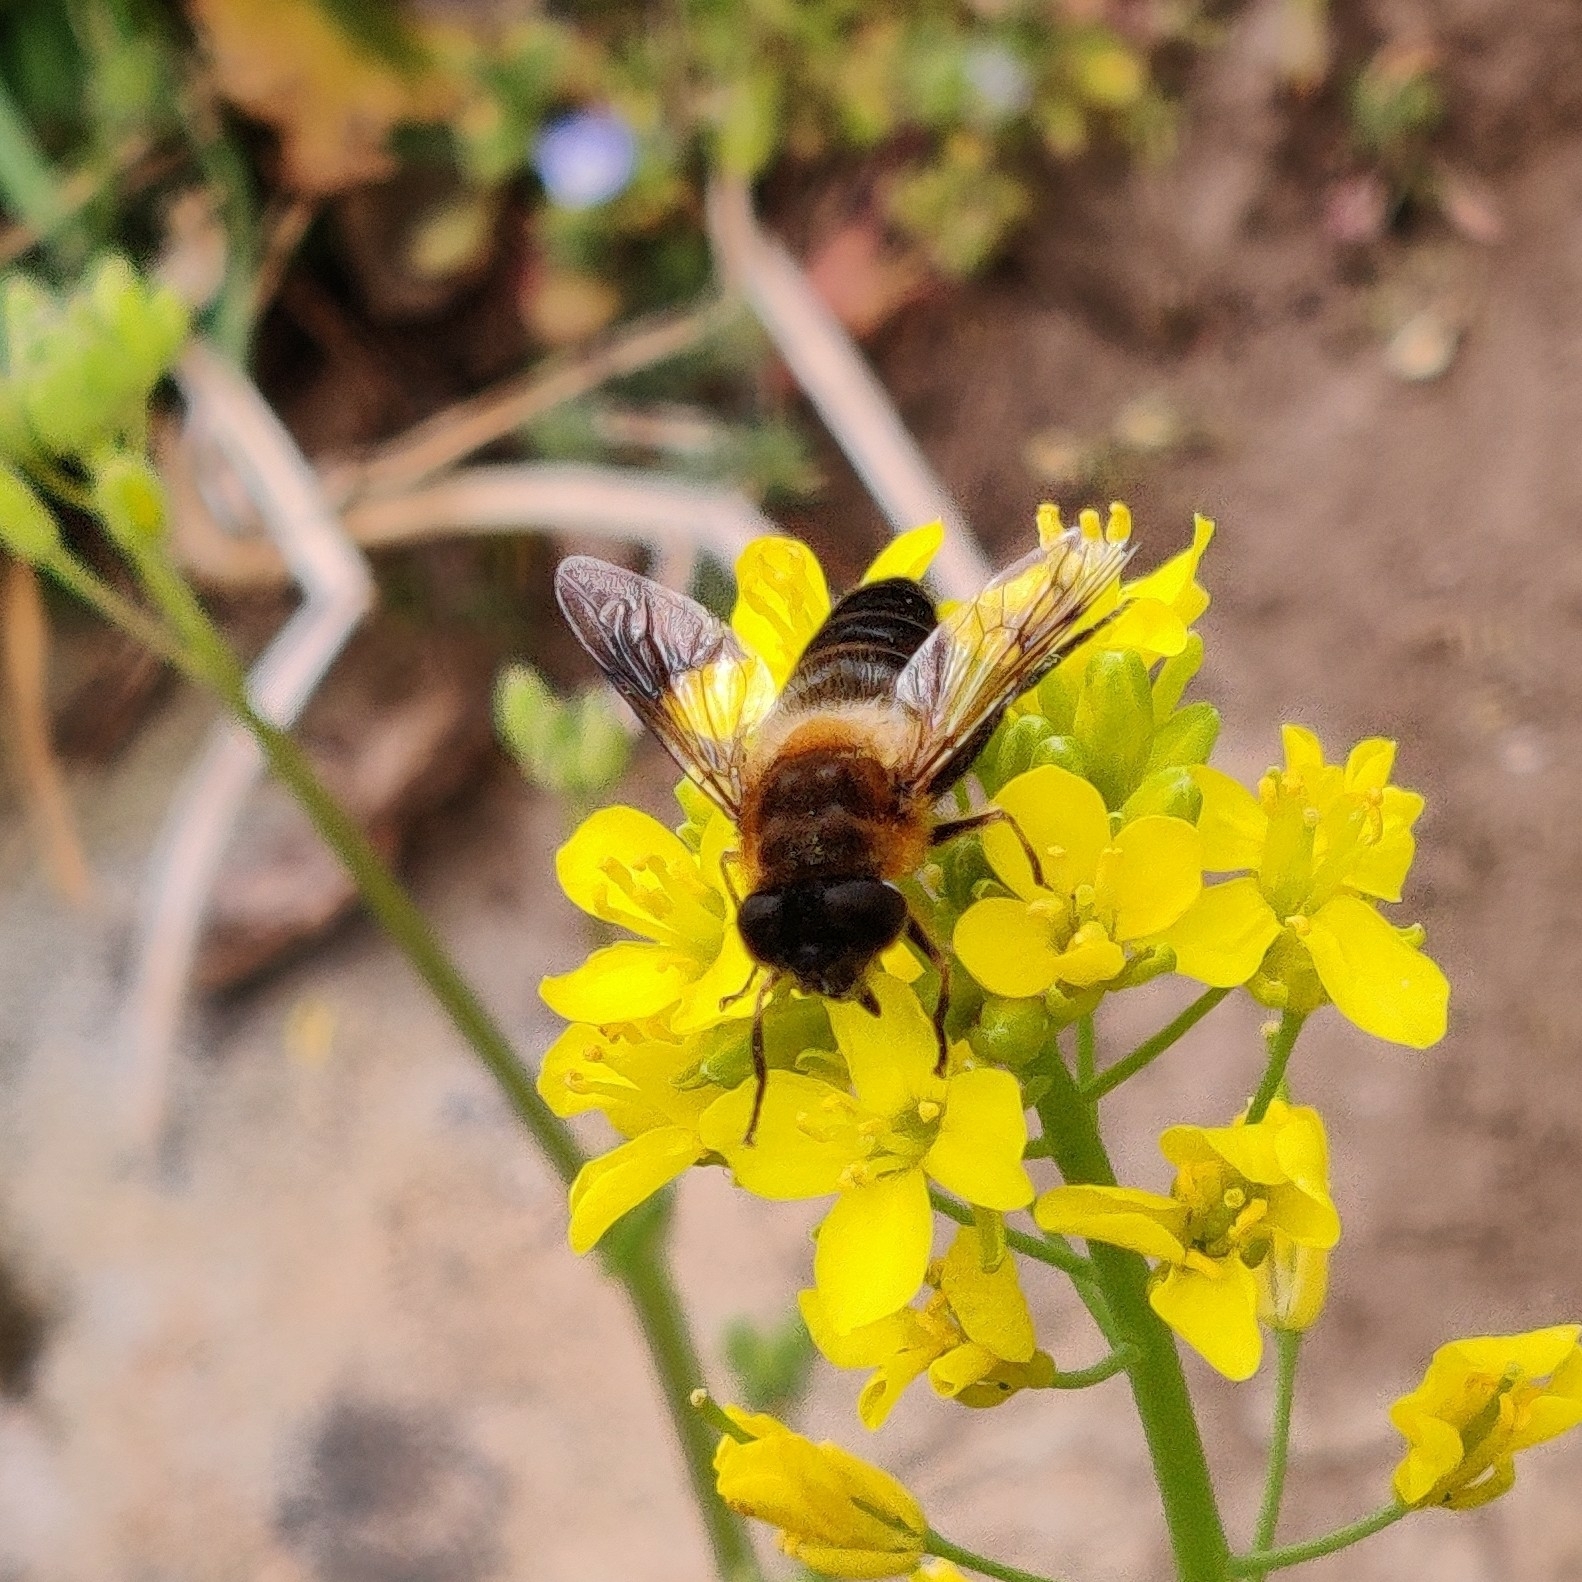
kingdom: Animalia
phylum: Arthropoda
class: Insecta
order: Diptera
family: Syrphidae
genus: Eristalis
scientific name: Eristalis himalayensis
